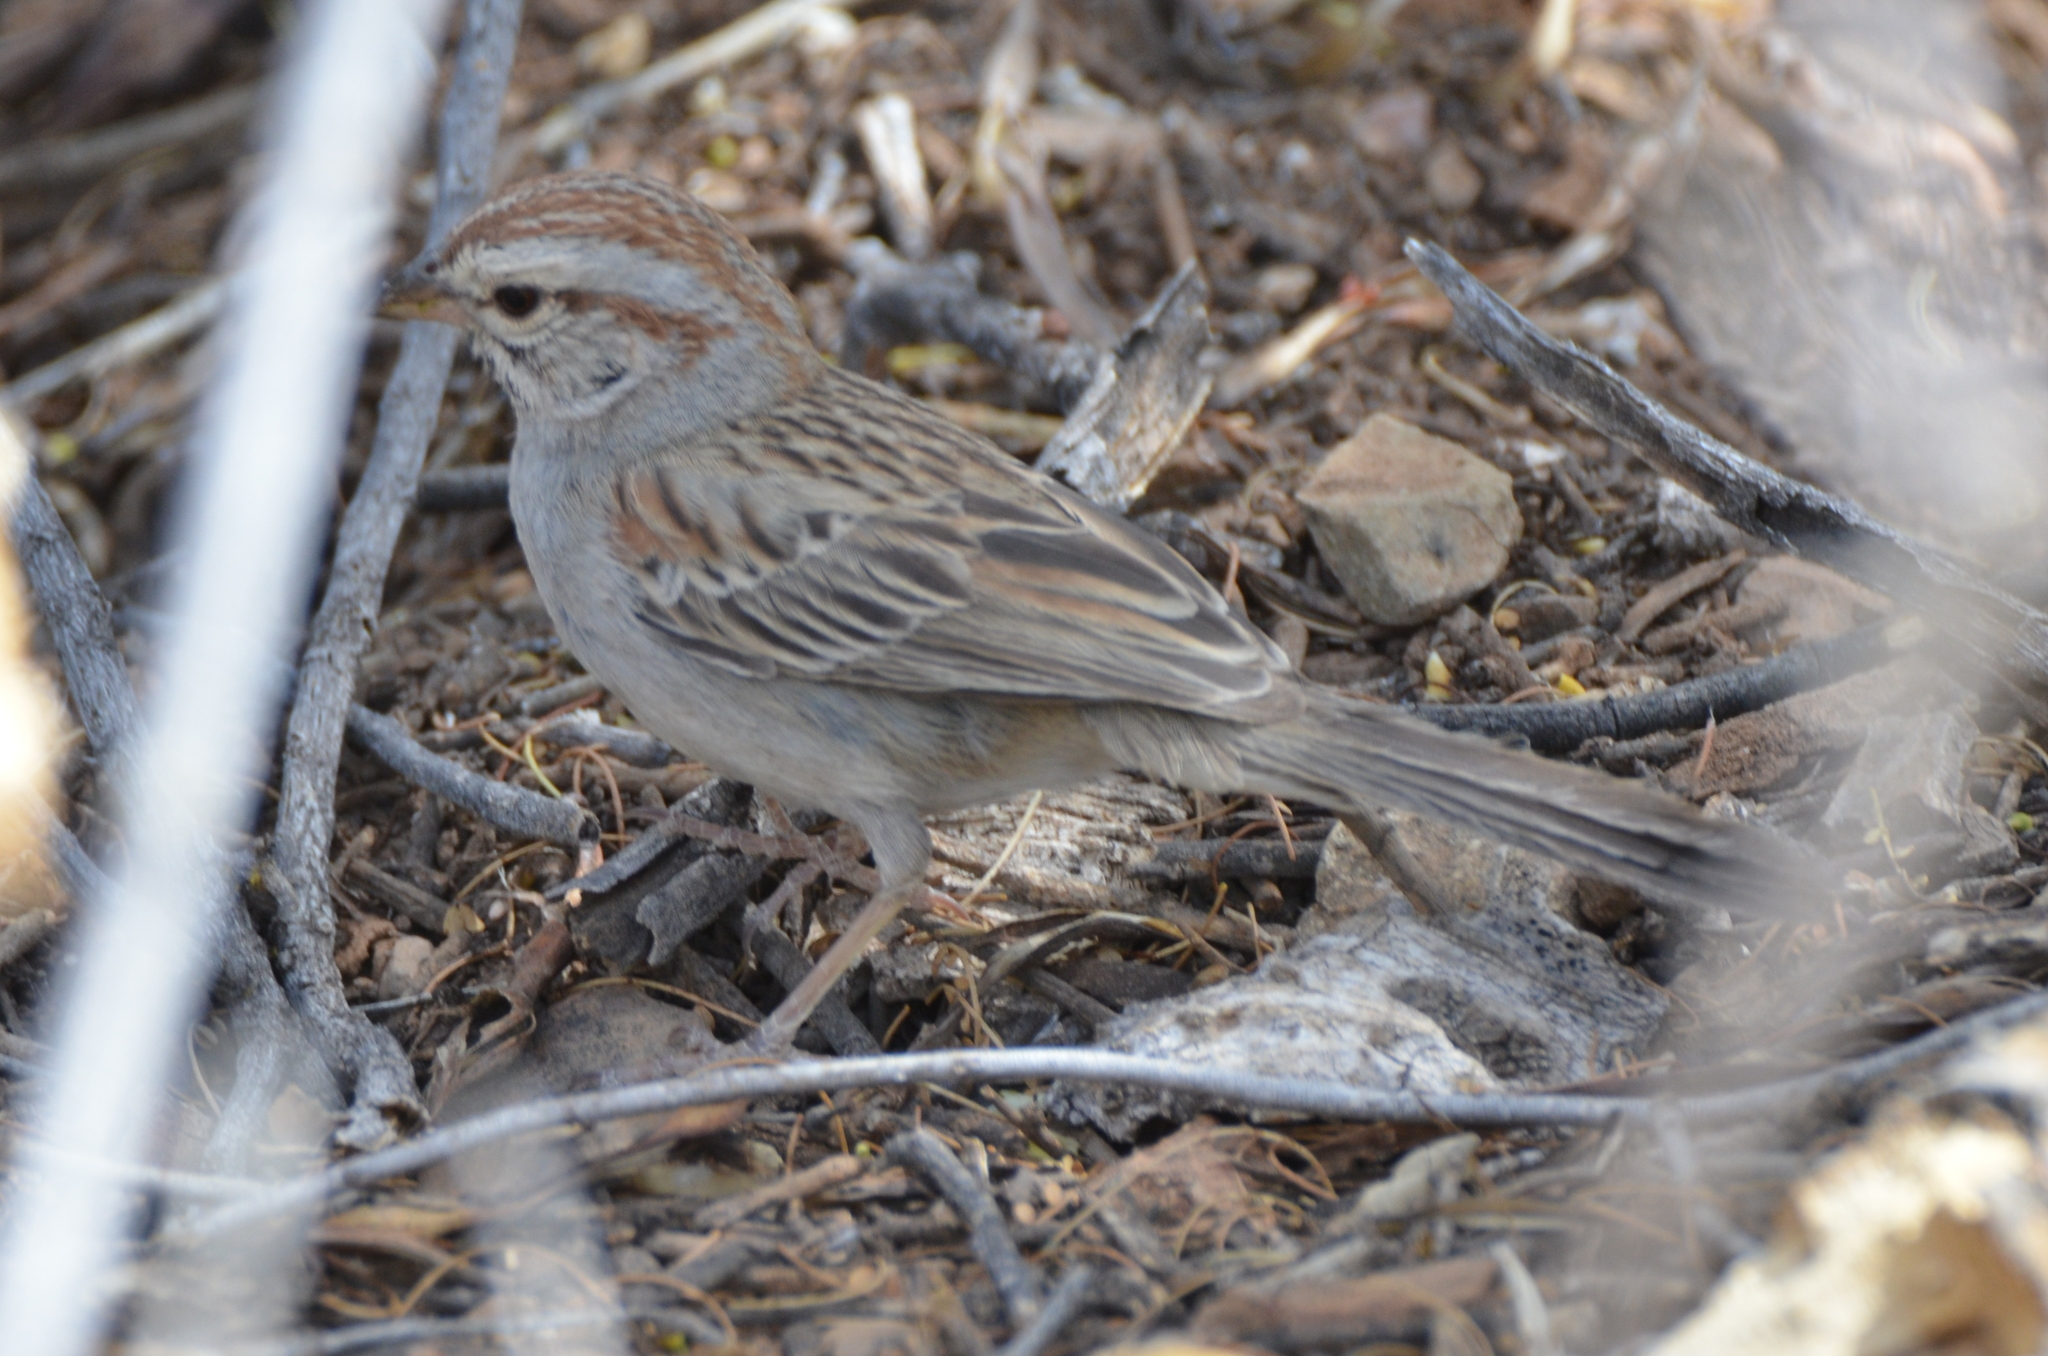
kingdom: Animalia
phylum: Chordata
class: Aves
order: Passeriformes
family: Passerellidae
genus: Peucaea
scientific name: Peucaea carpalis
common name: Rufous-winged sparrow
